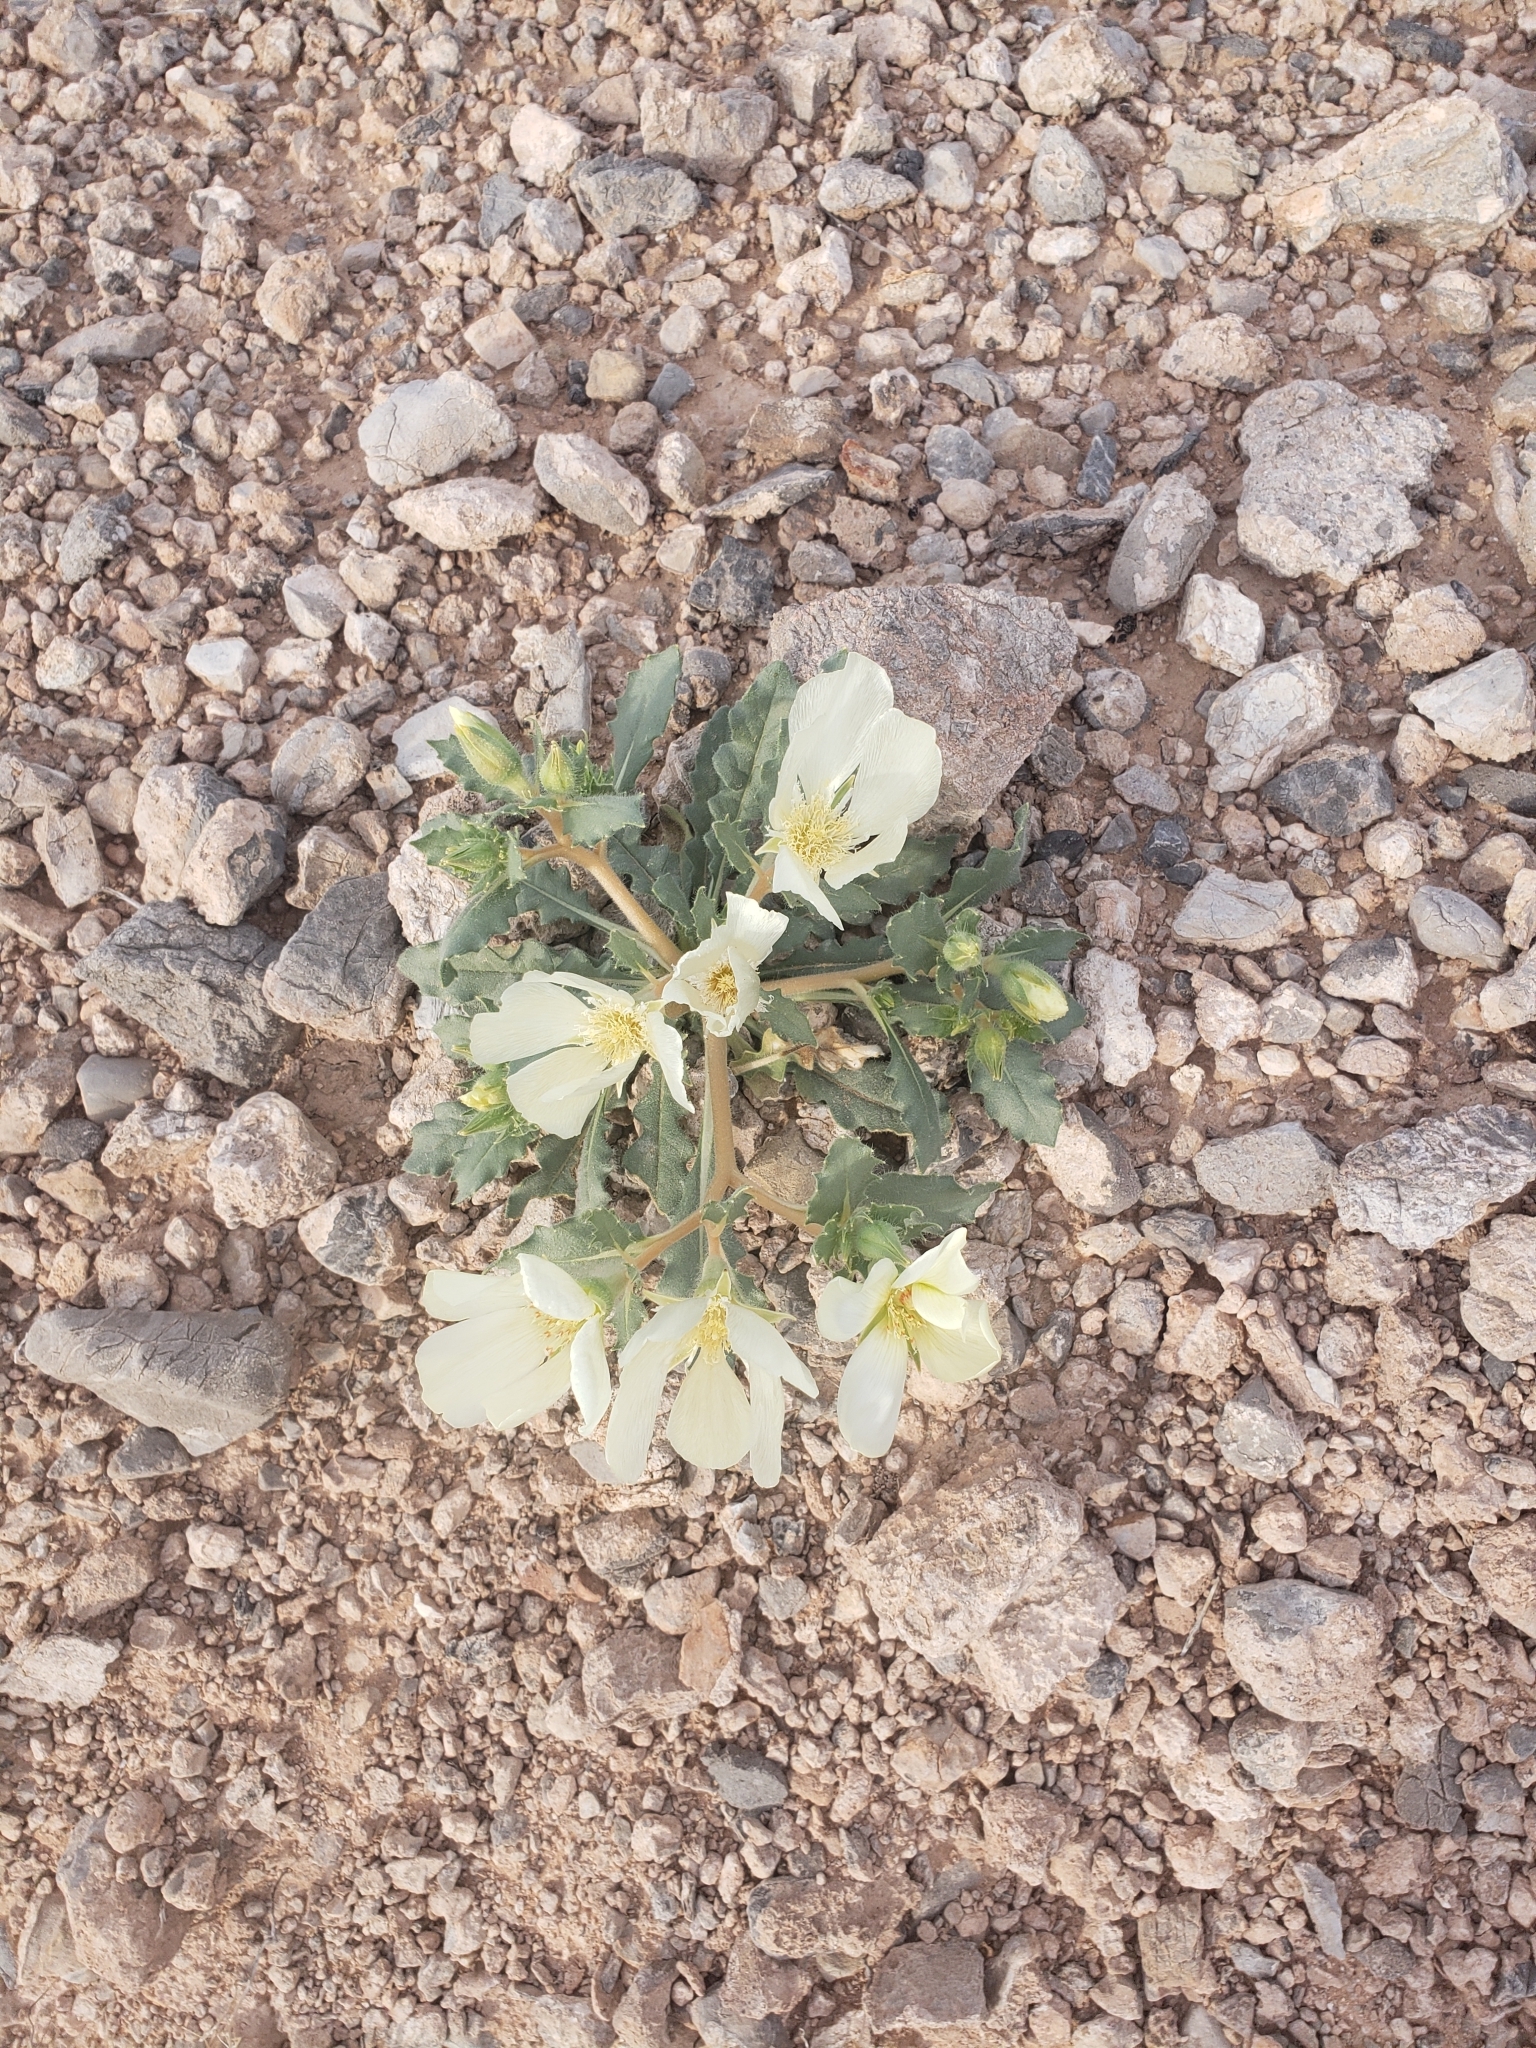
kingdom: Plantae
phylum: Tracheophyta
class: Magnoliopsida
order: Cornales
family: Loasaceae
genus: Mentzelia
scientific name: Mentzelia tricuspis
